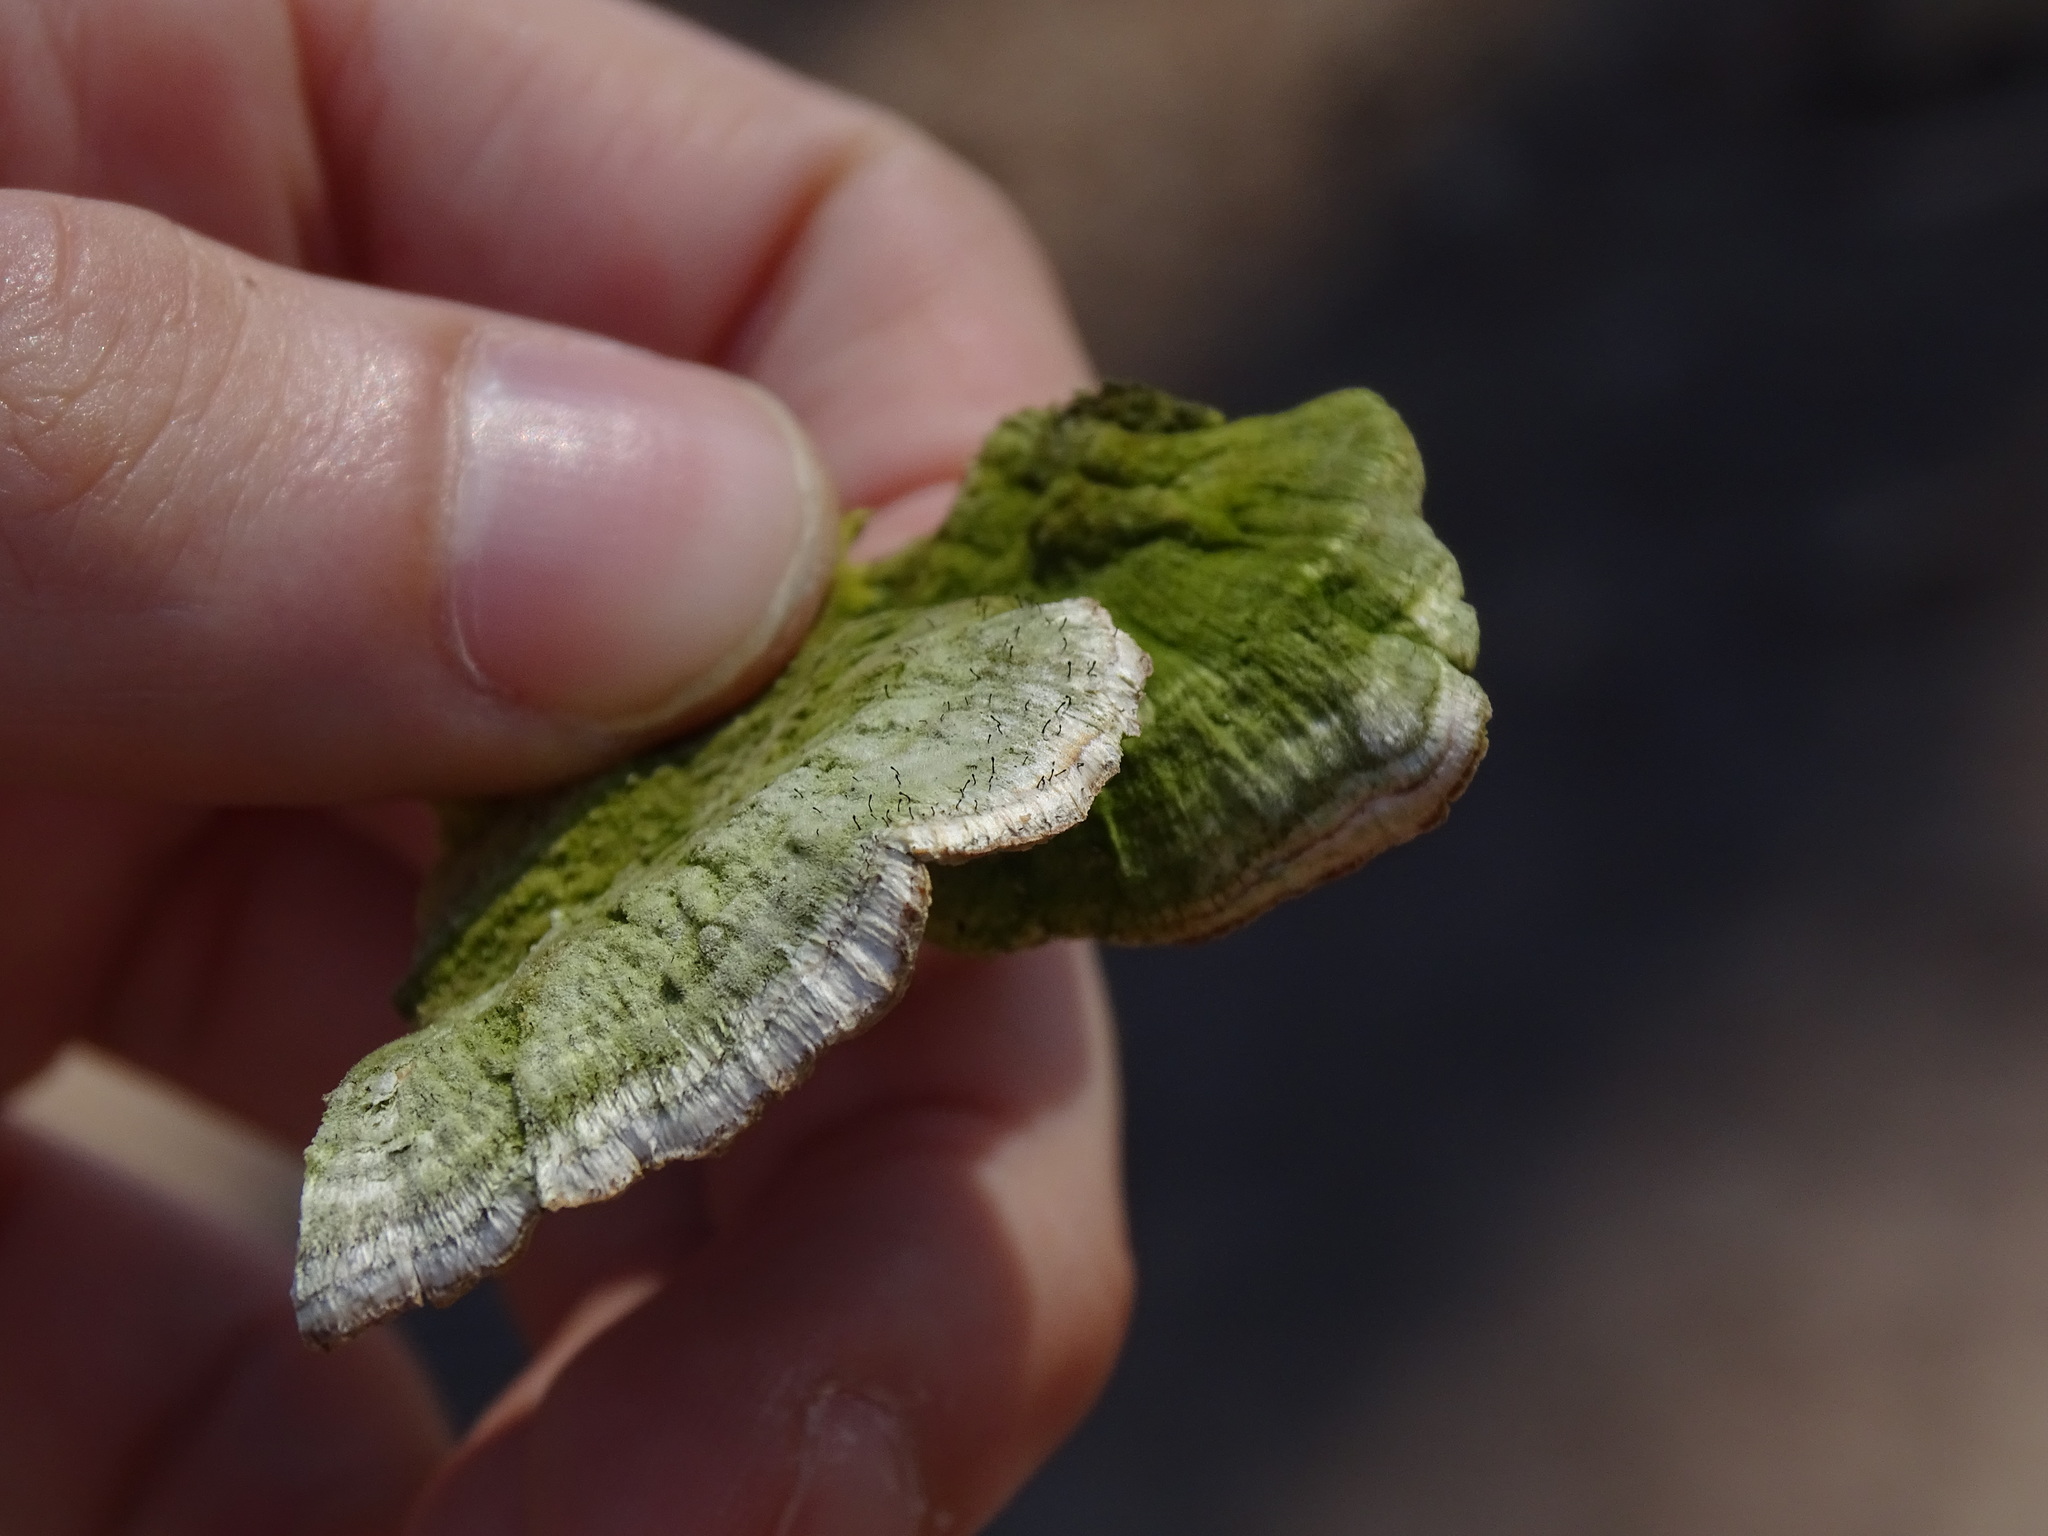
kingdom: Fungi
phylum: Ascomycota
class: Eurotiomycetes
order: Mycocaliciales
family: Mycocaliciaceae
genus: Phaeocalicium
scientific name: Phaeocalicium polyporaeum
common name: Fairy pins
